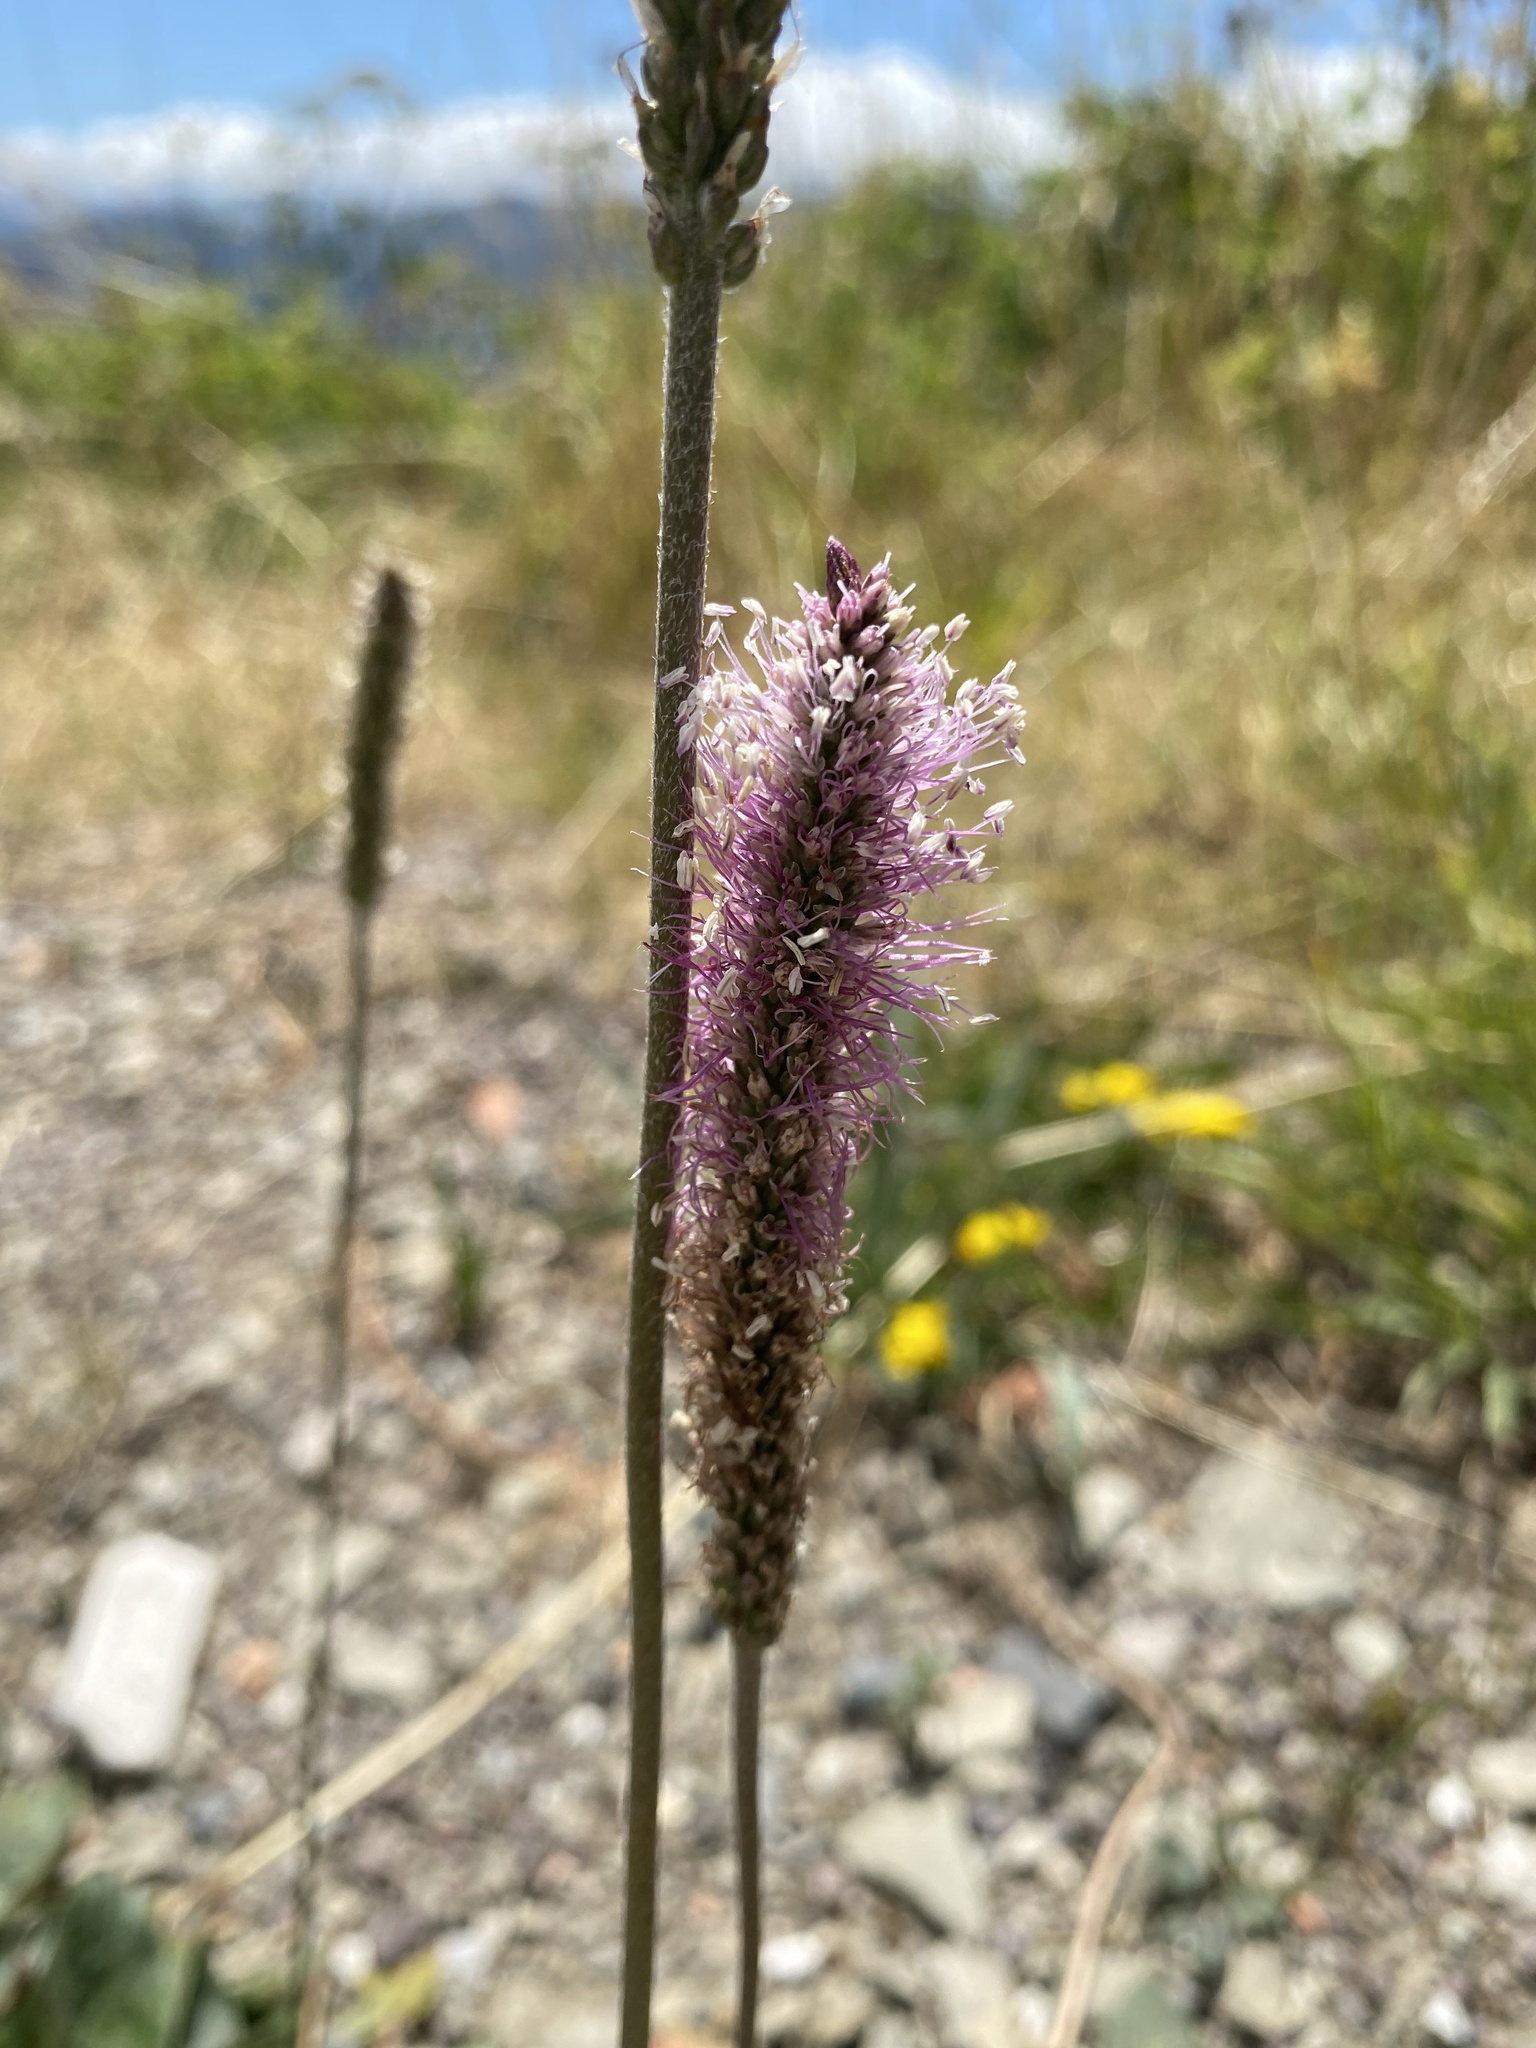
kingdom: Plantae
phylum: Tracheophyta
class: Magnoliopsida
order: Lamiales
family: Plantaginaceae
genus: Plantago
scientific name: Plantago media
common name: Hoary plantain
